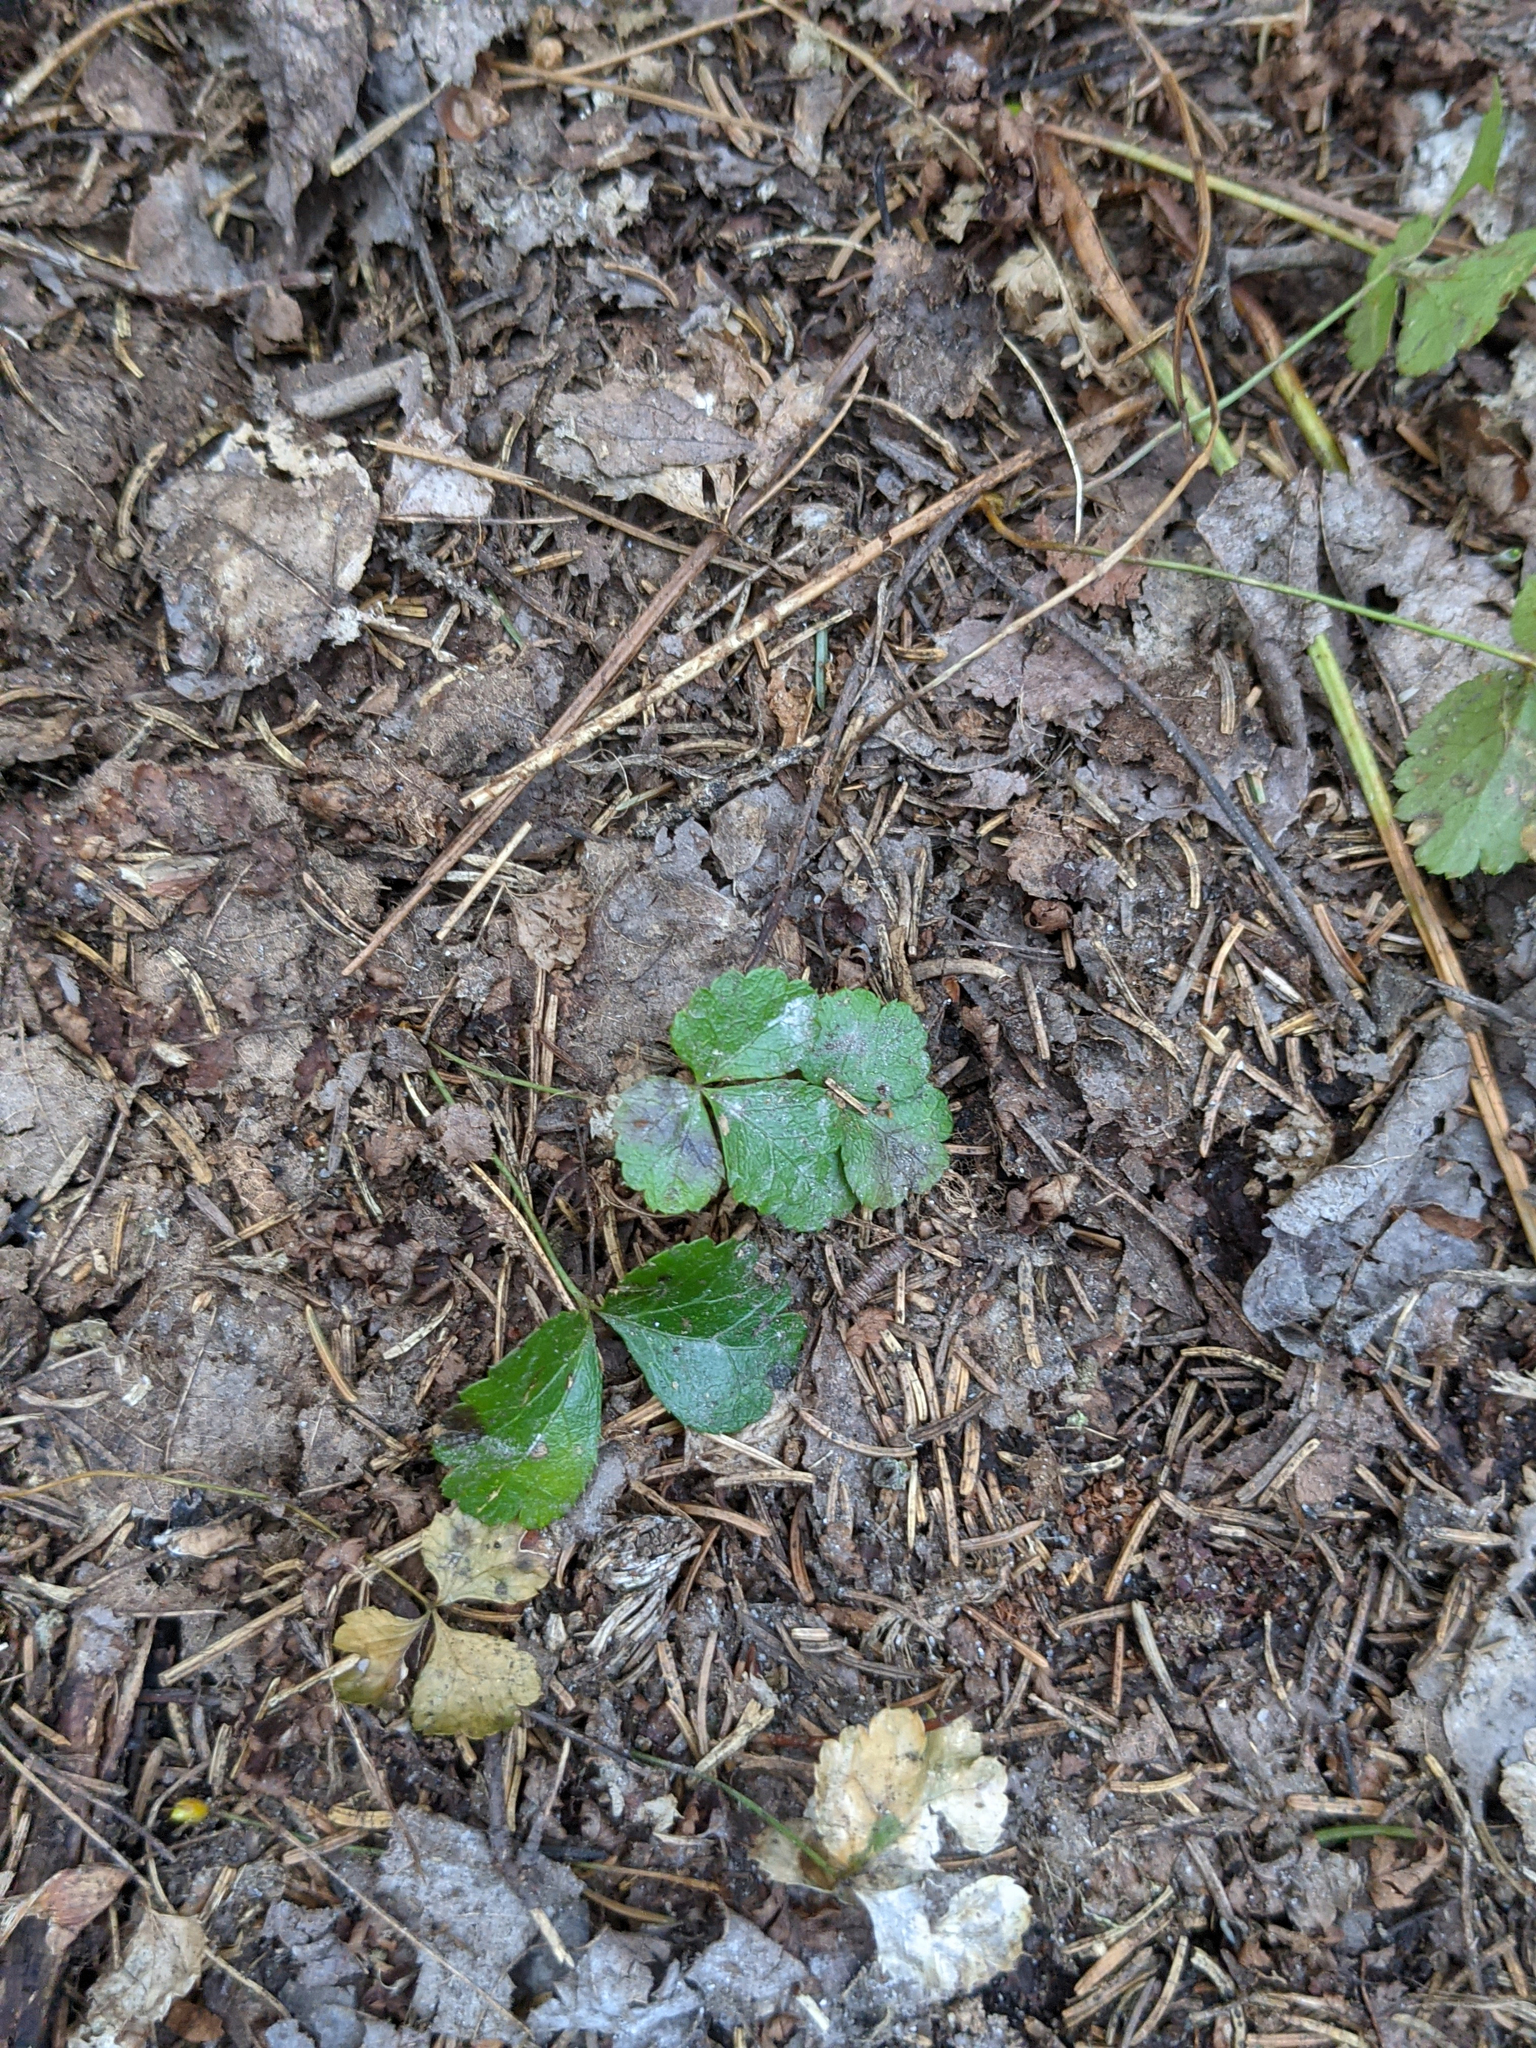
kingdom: Plantae
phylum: Tracheophyta
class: Magnoliopsida
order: Ranunculales
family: Ranunculaceae
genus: Coptis
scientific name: Coptis trifolia
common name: Canker-root
